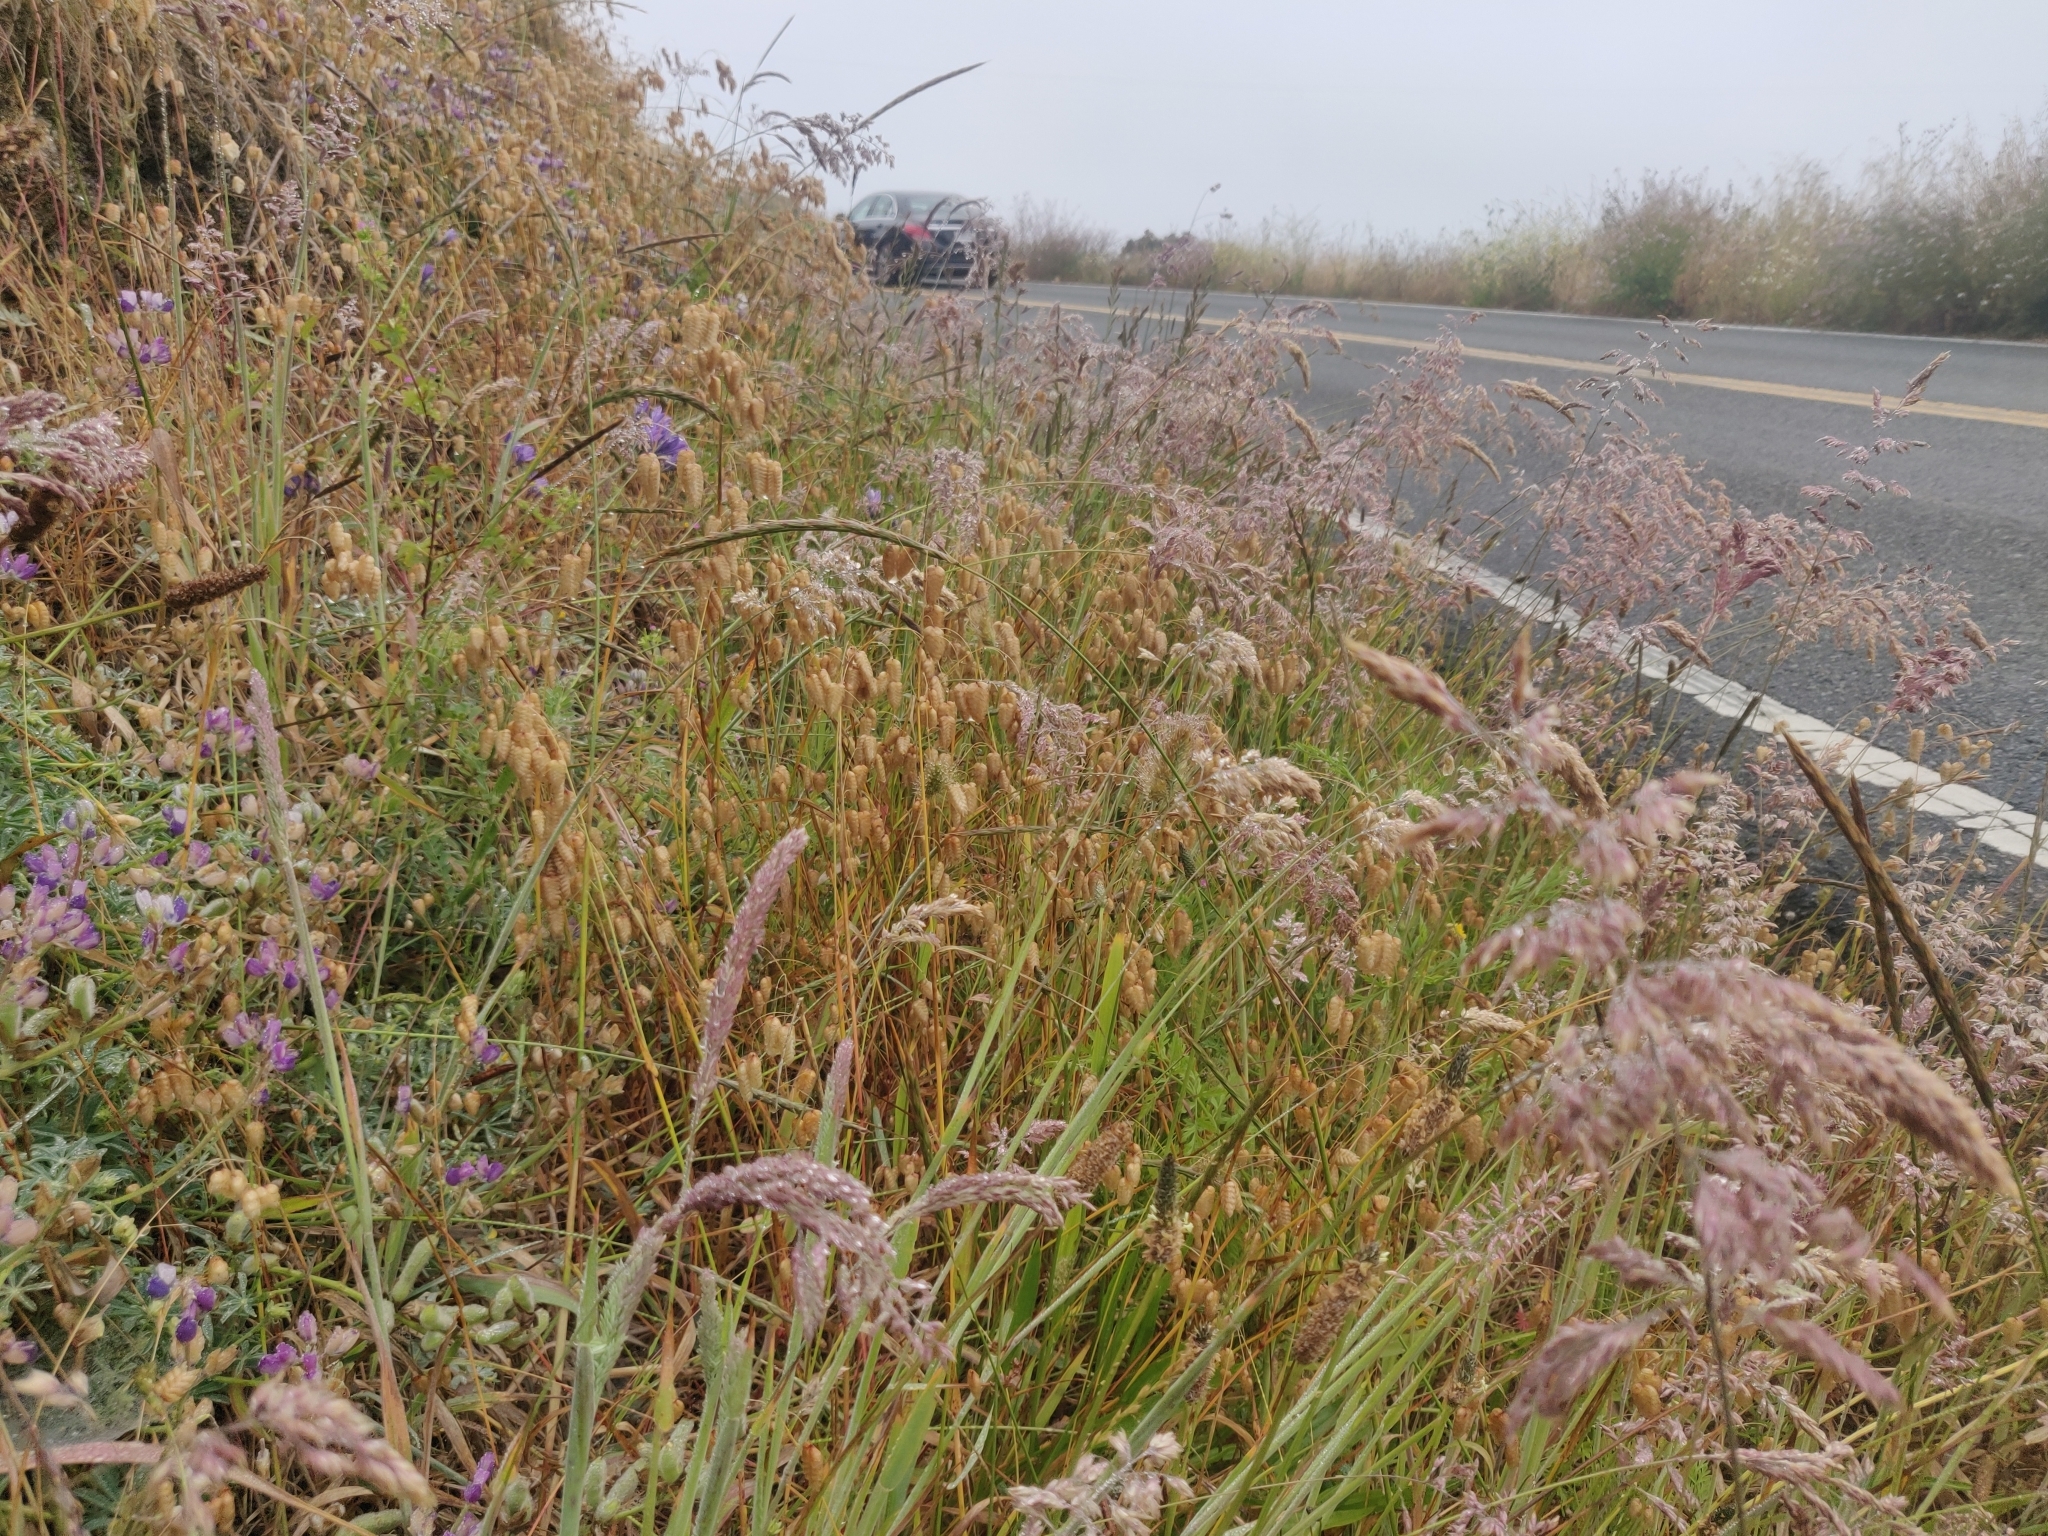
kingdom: Plantae
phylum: Tracheophyta
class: Liliopsida
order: Poales
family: Poaceae
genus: Briza
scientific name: Briza maxima
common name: Big quakinggrass
